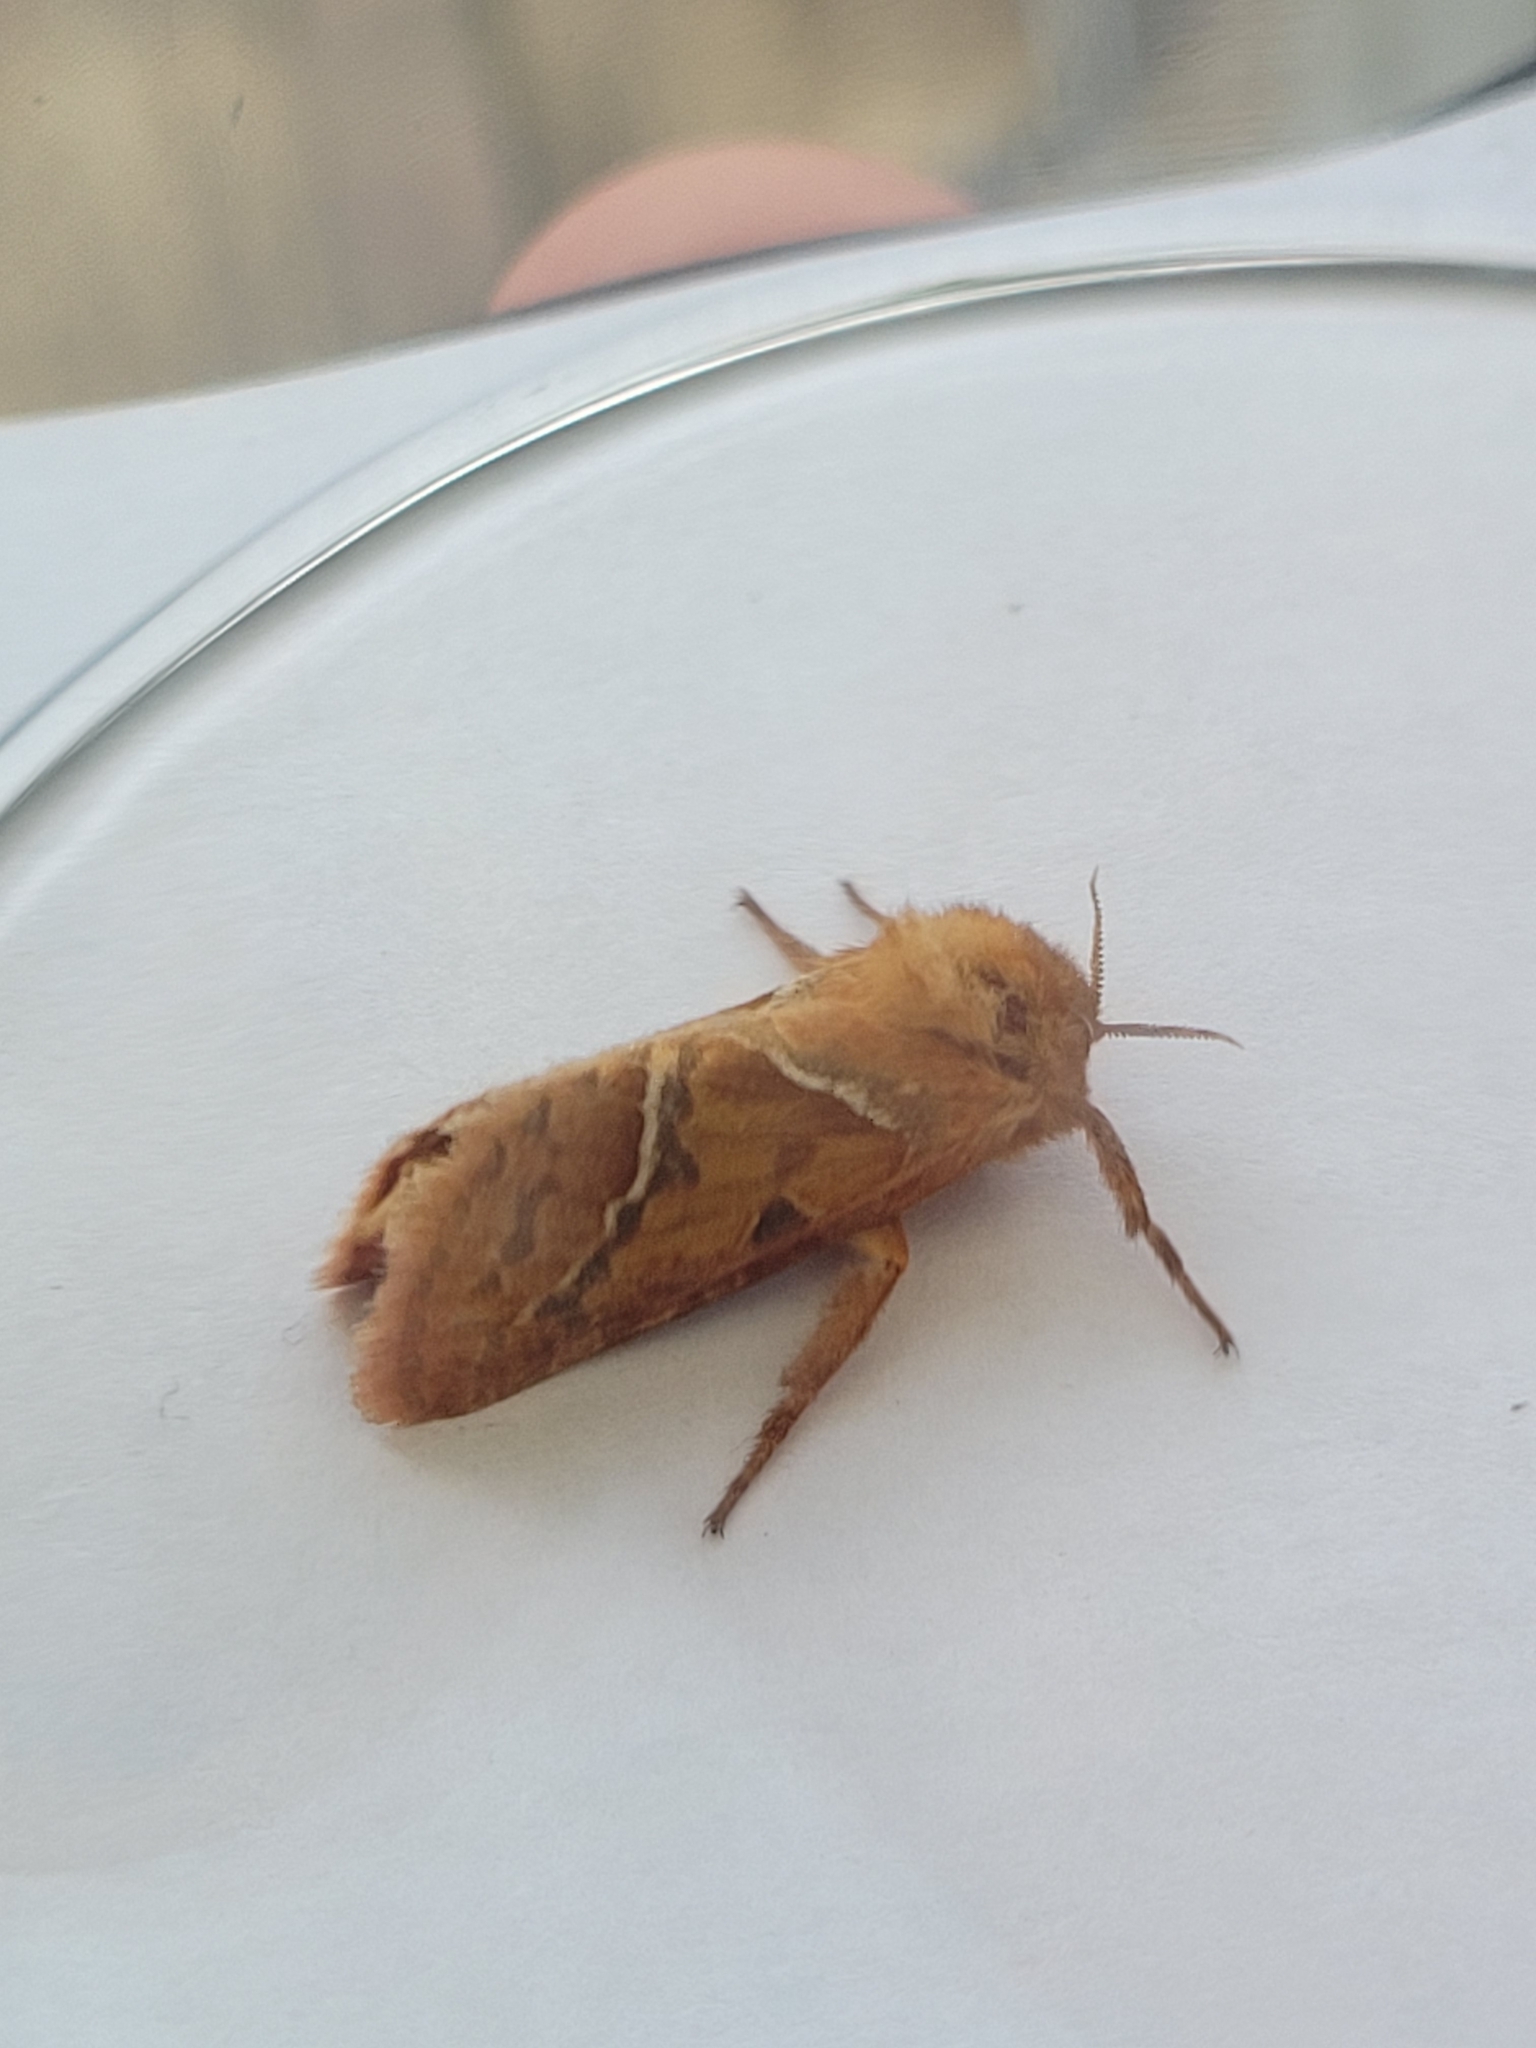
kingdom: Animalia
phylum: Arthropoda
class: Insecta
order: Lepidoptera
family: Hepialidae
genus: Triodia
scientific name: Triodia sylvina
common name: Orange swift
